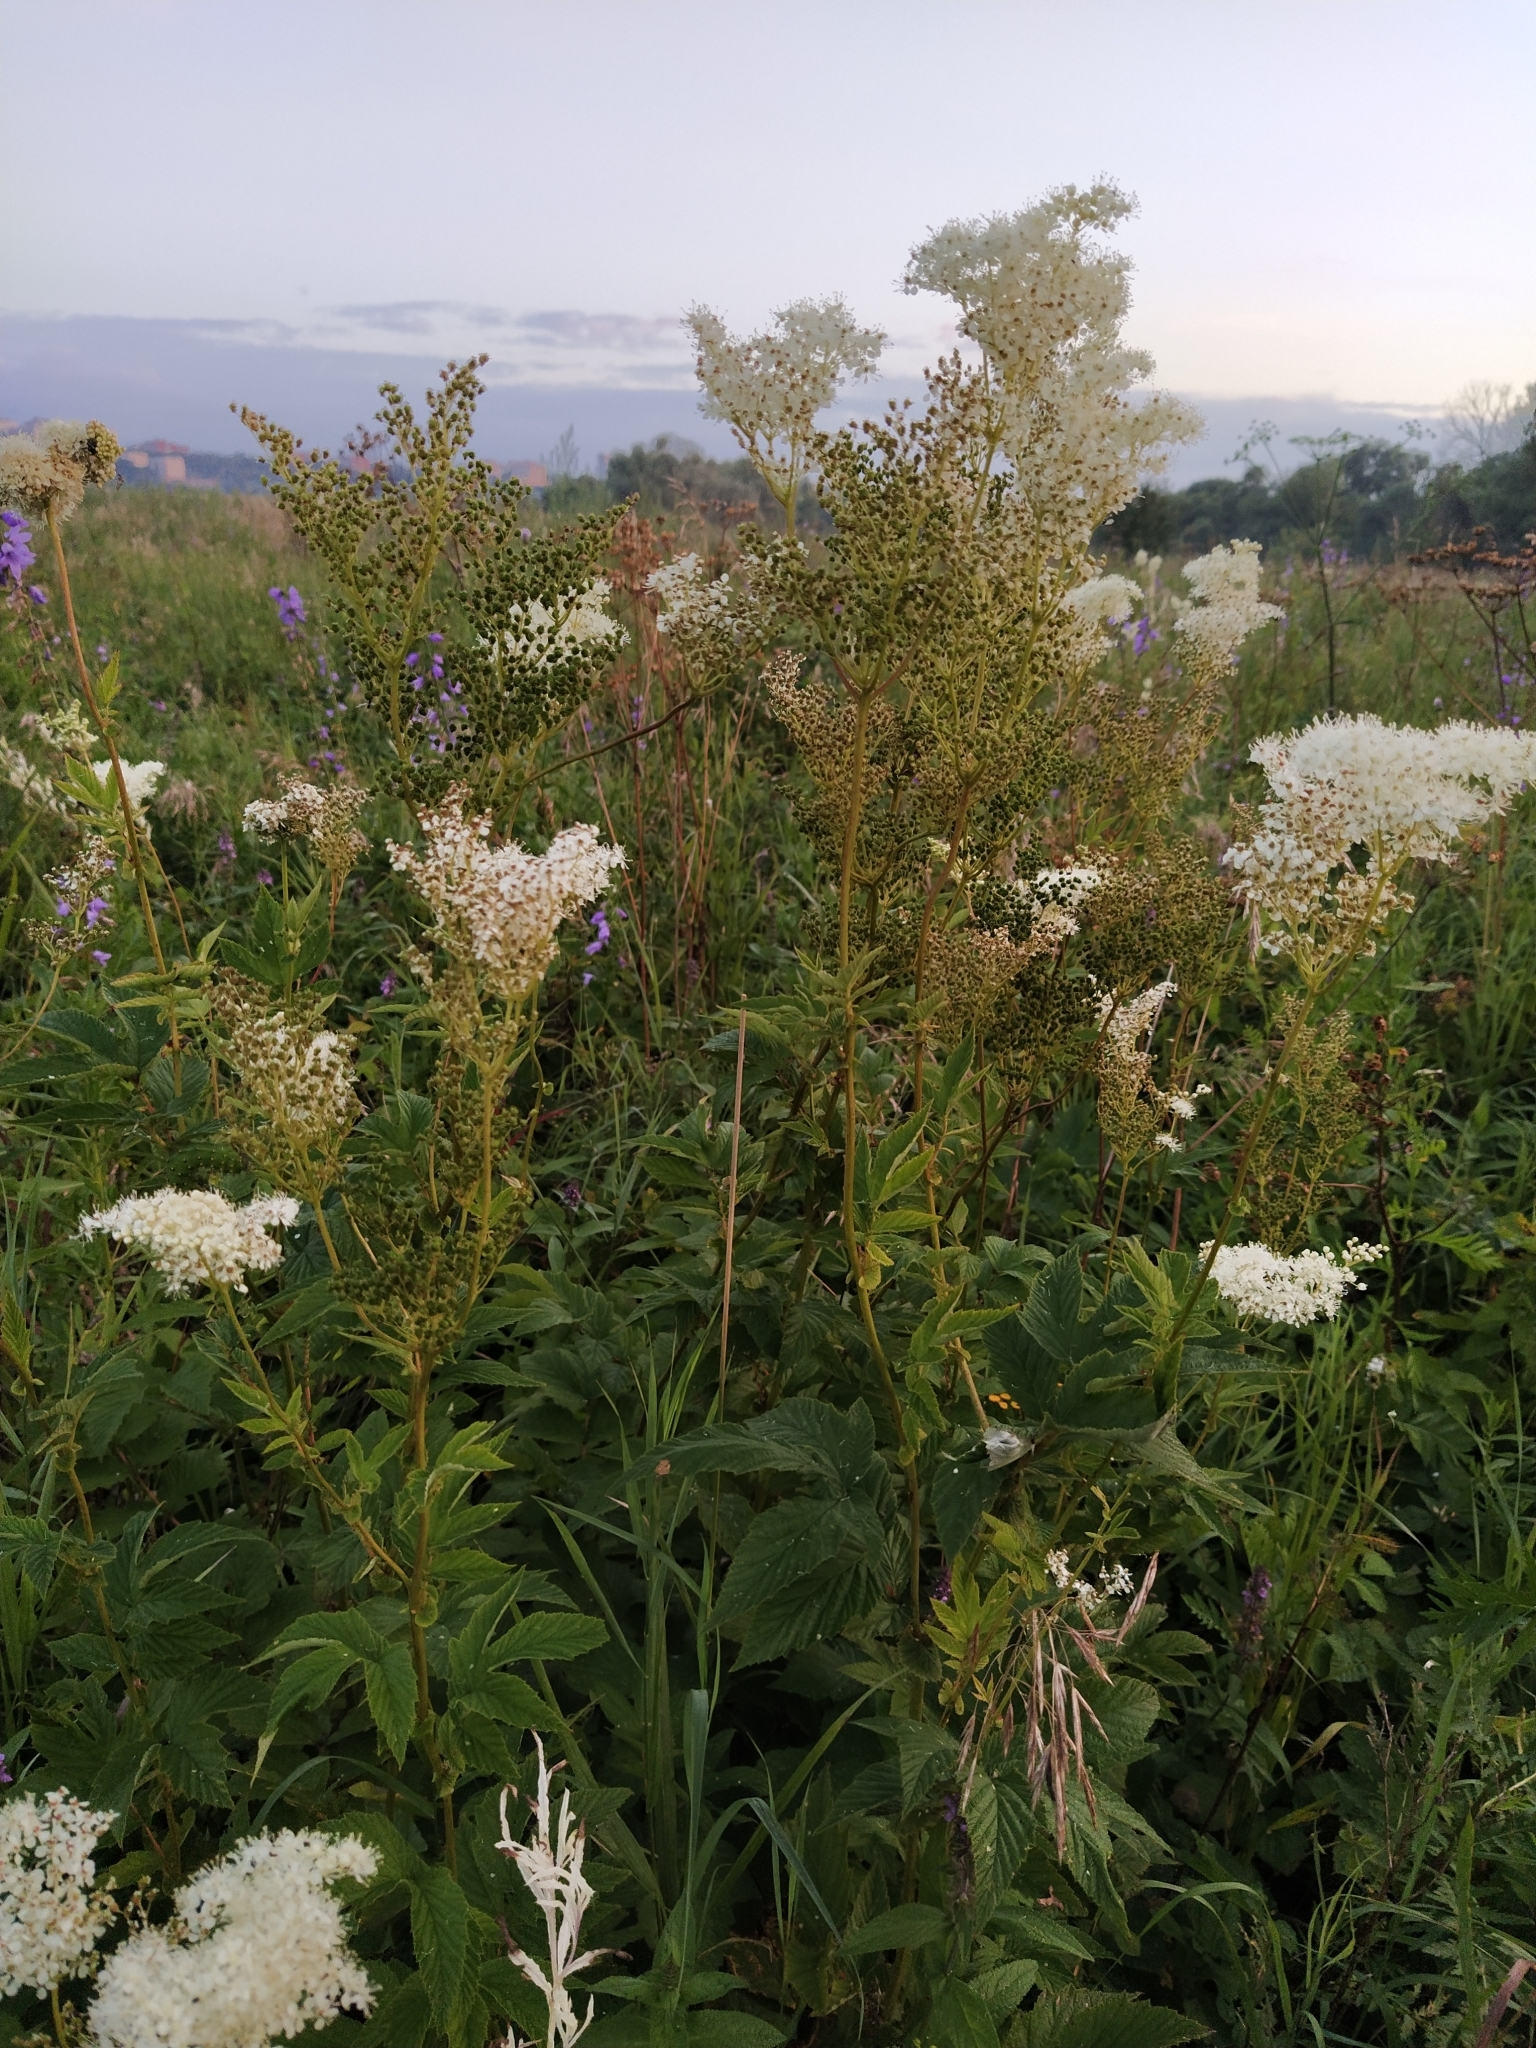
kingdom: Plantae
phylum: Tracheophyta
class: Magnoliopsida
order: Rosales
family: Rosaceae
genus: Filipendula
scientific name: Filipendula ulmaria
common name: Meadowsweet
